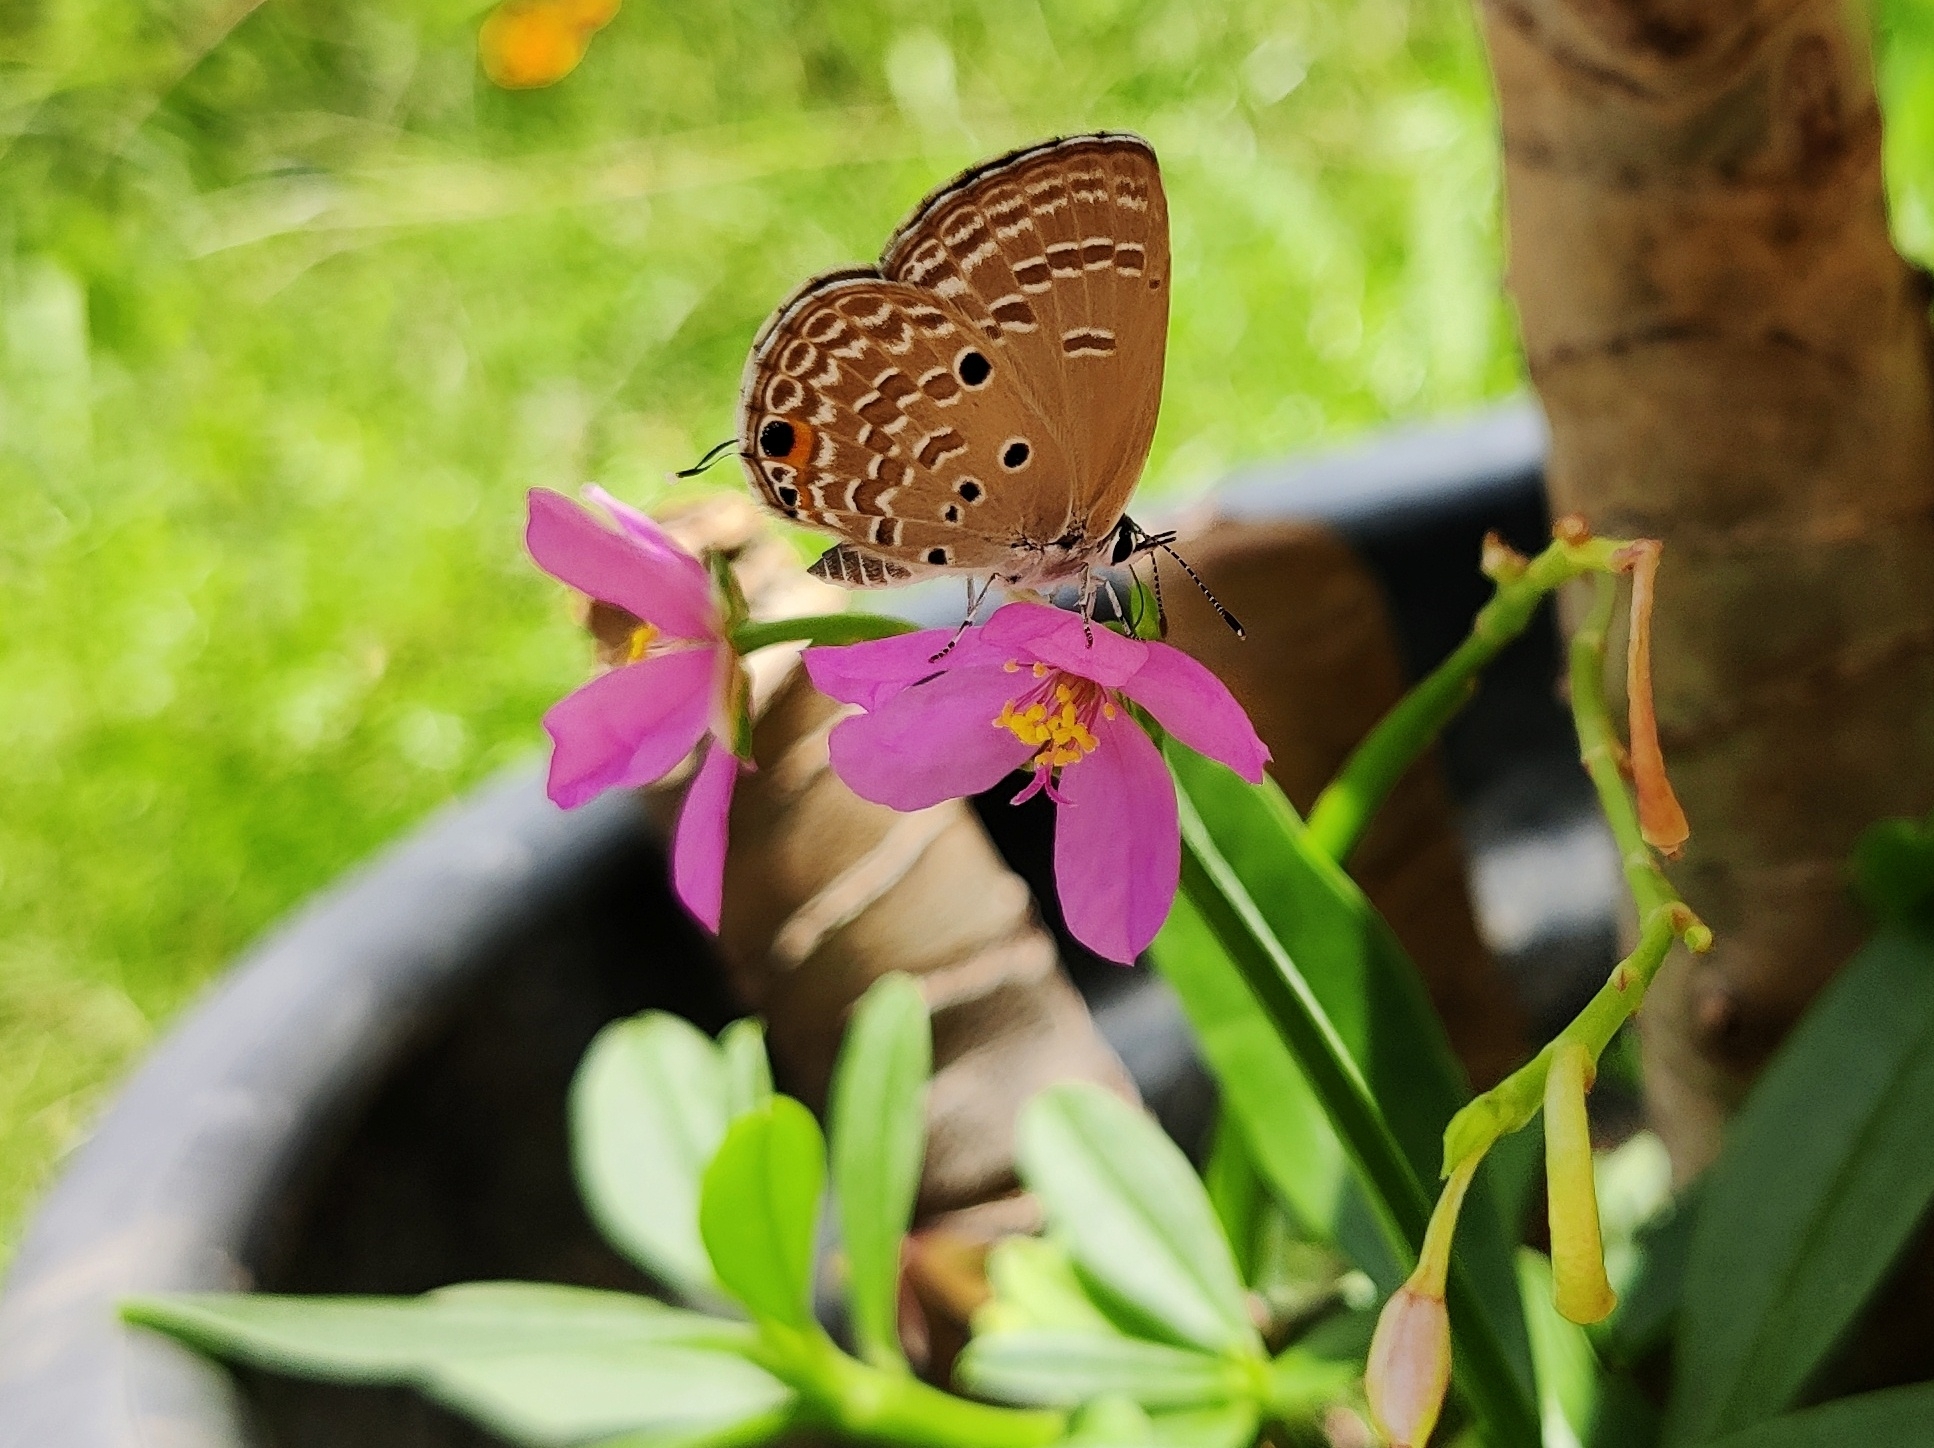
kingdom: Animalia
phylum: Arthropoda
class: Insecta
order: Lepidoptera
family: Lycaenidae
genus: Luthrodes
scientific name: Luthrodes pandava
